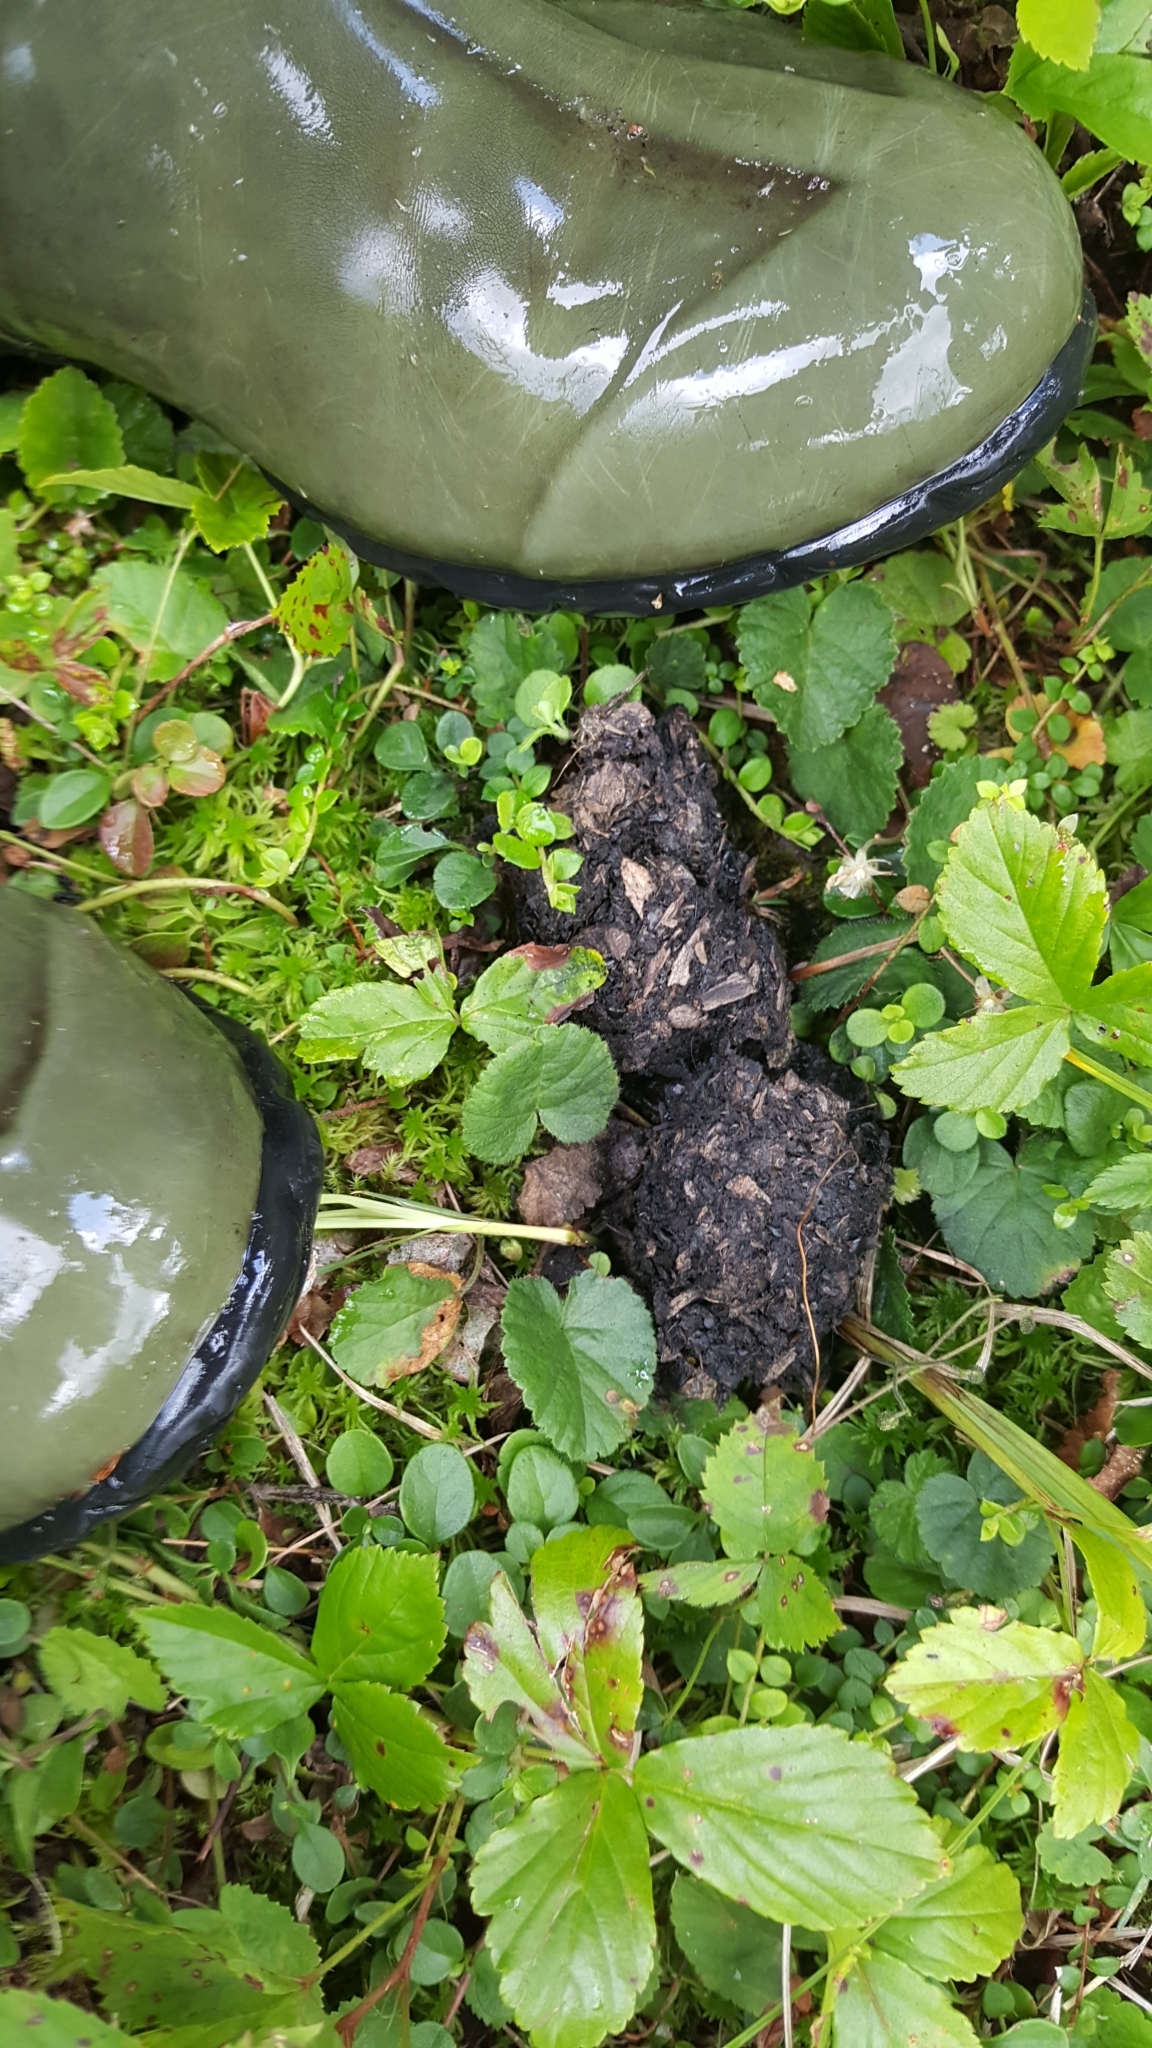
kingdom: Animalia
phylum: Chordata
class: Mammalia
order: Carnivora
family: Ursidae
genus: Ursus
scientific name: Ursus americanus
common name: American black bear
